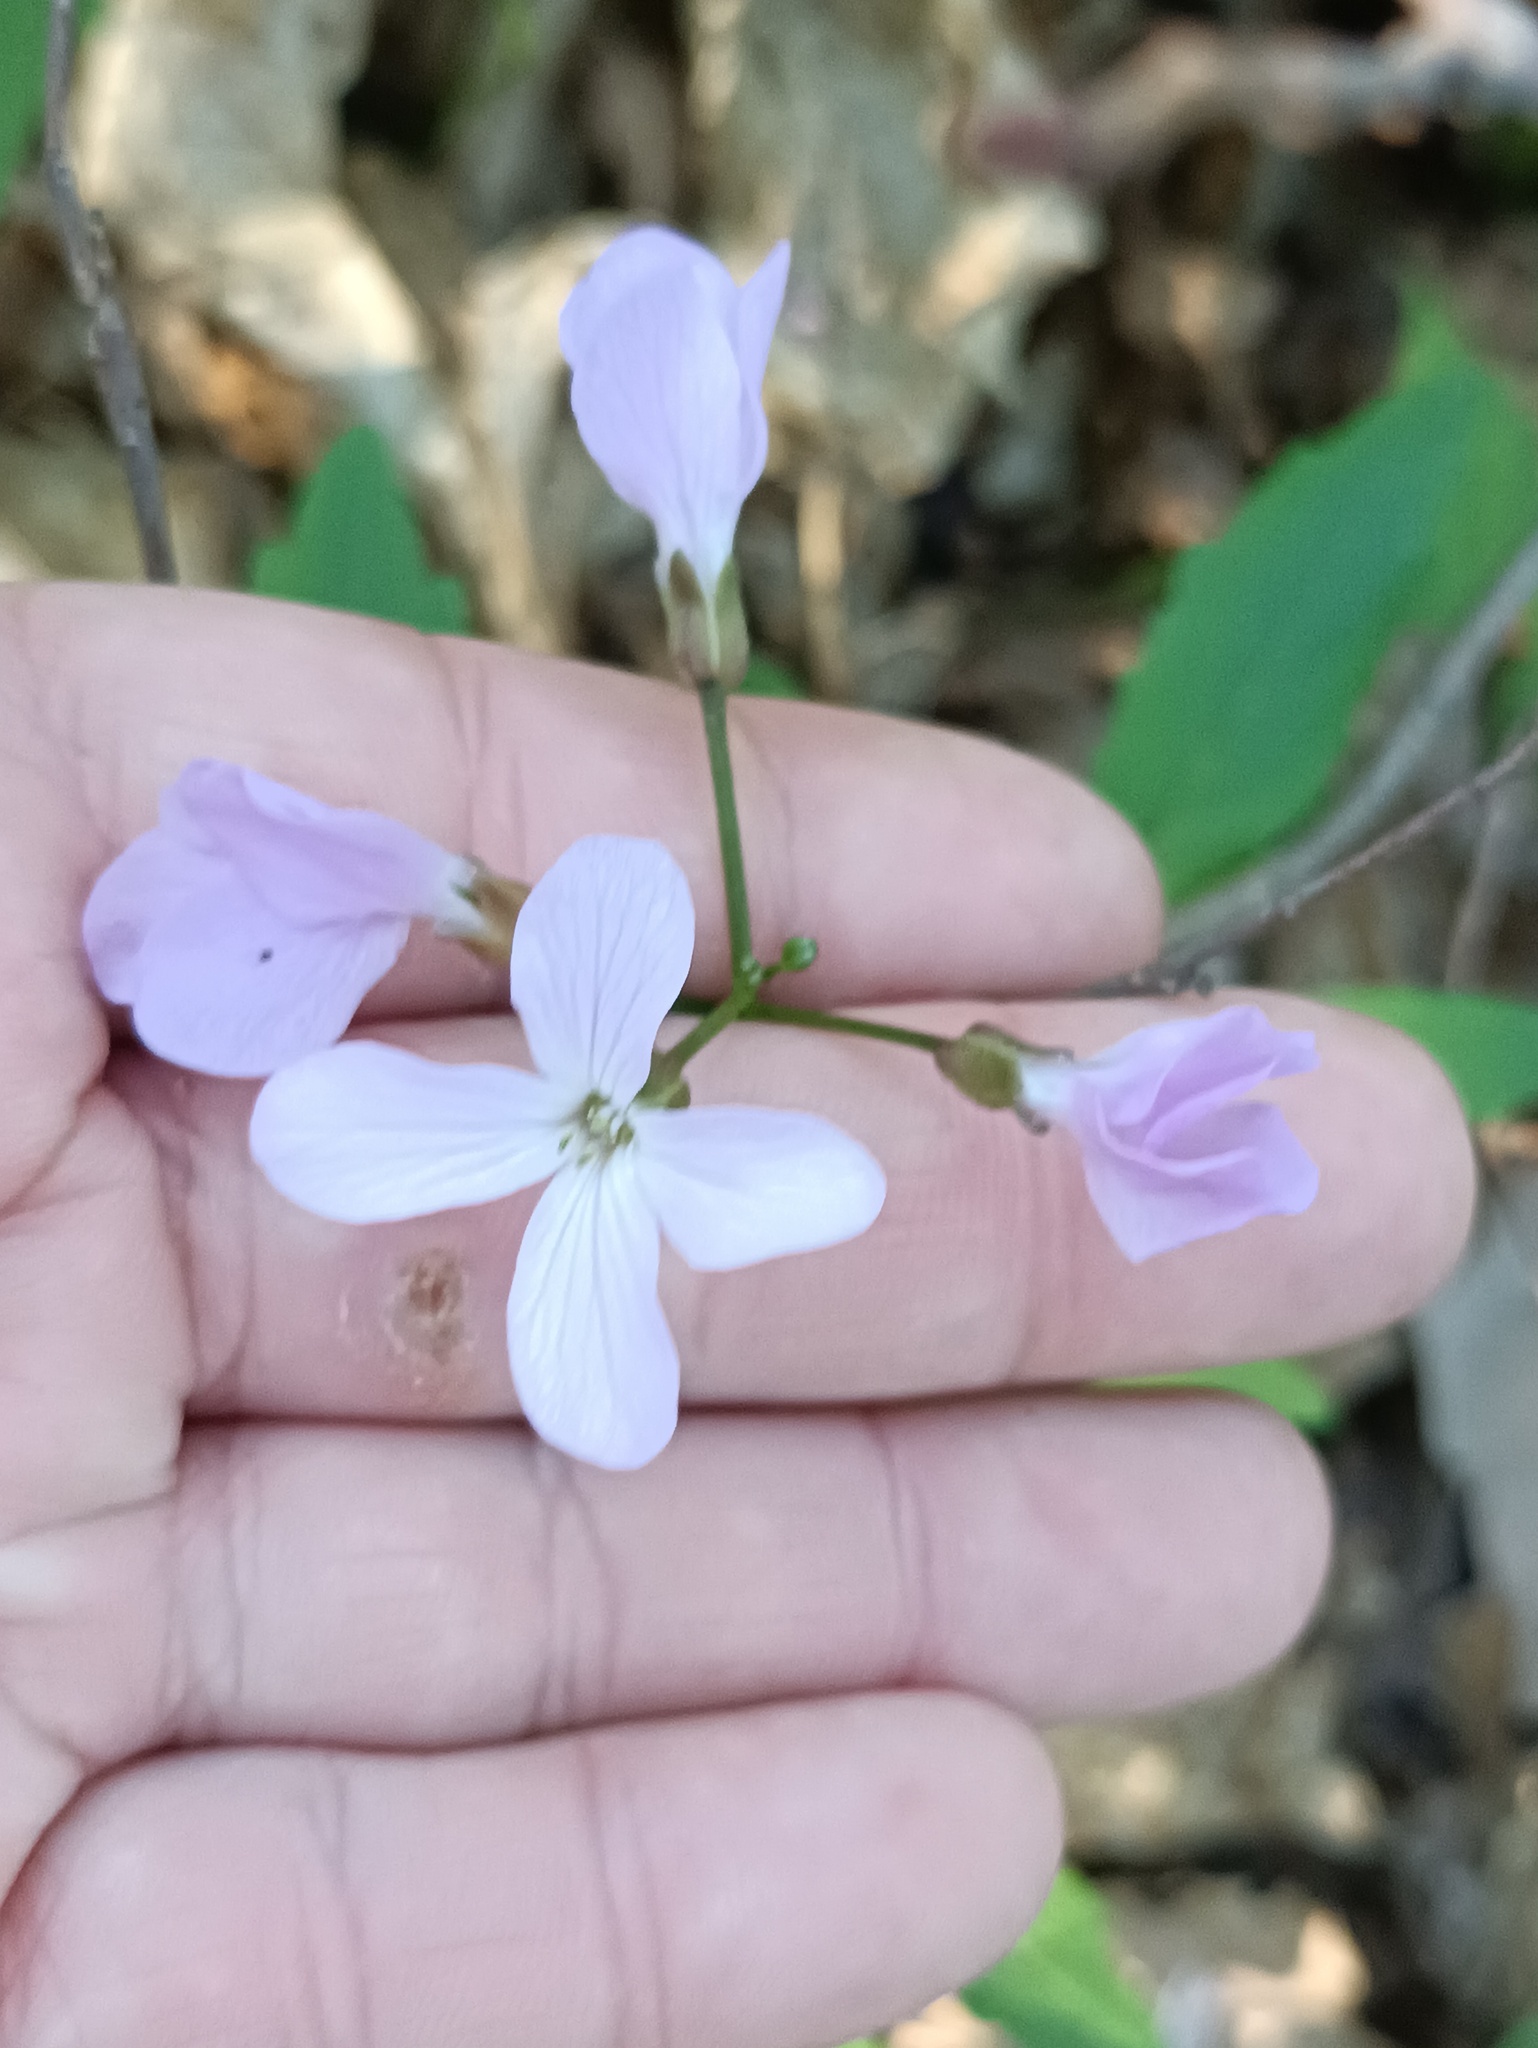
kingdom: Plantae
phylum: Tracheophyta
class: Magnoliopsida
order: Brassicales
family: Brassicaceae
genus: Cardamine
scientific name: Cardamine quinquefolia
